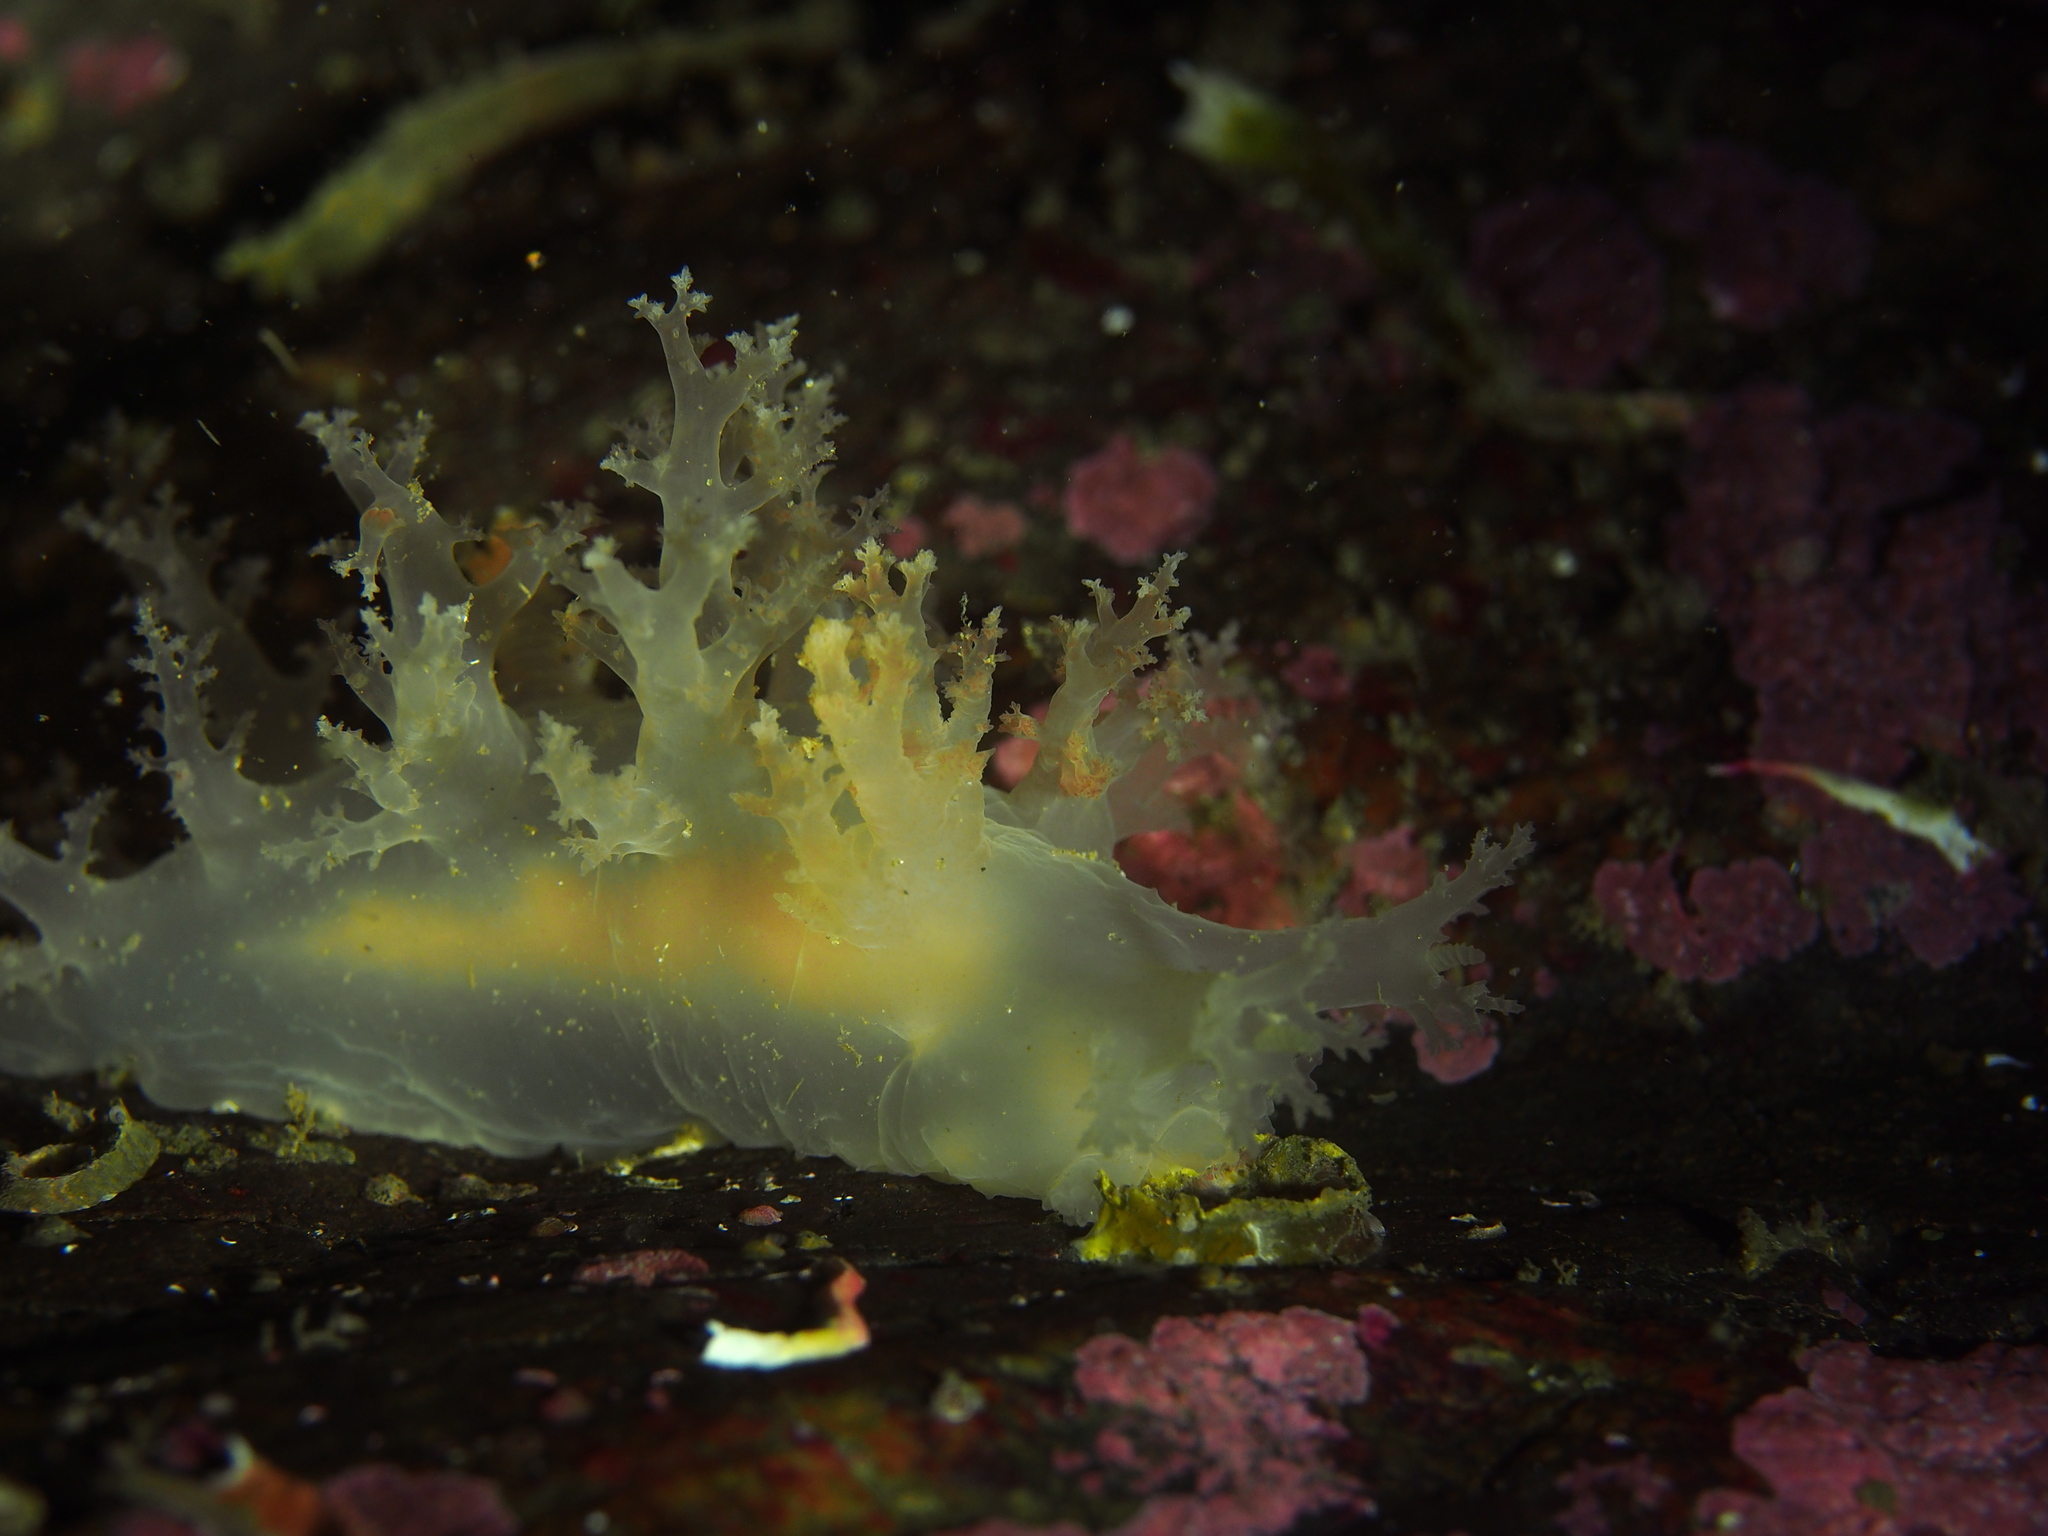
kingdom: Animalia
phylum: Mollusca
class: Gastropoda
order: Nudibranchia
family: Dendronotidae
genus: Dendronotus
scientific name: Dendronotus lacteus
